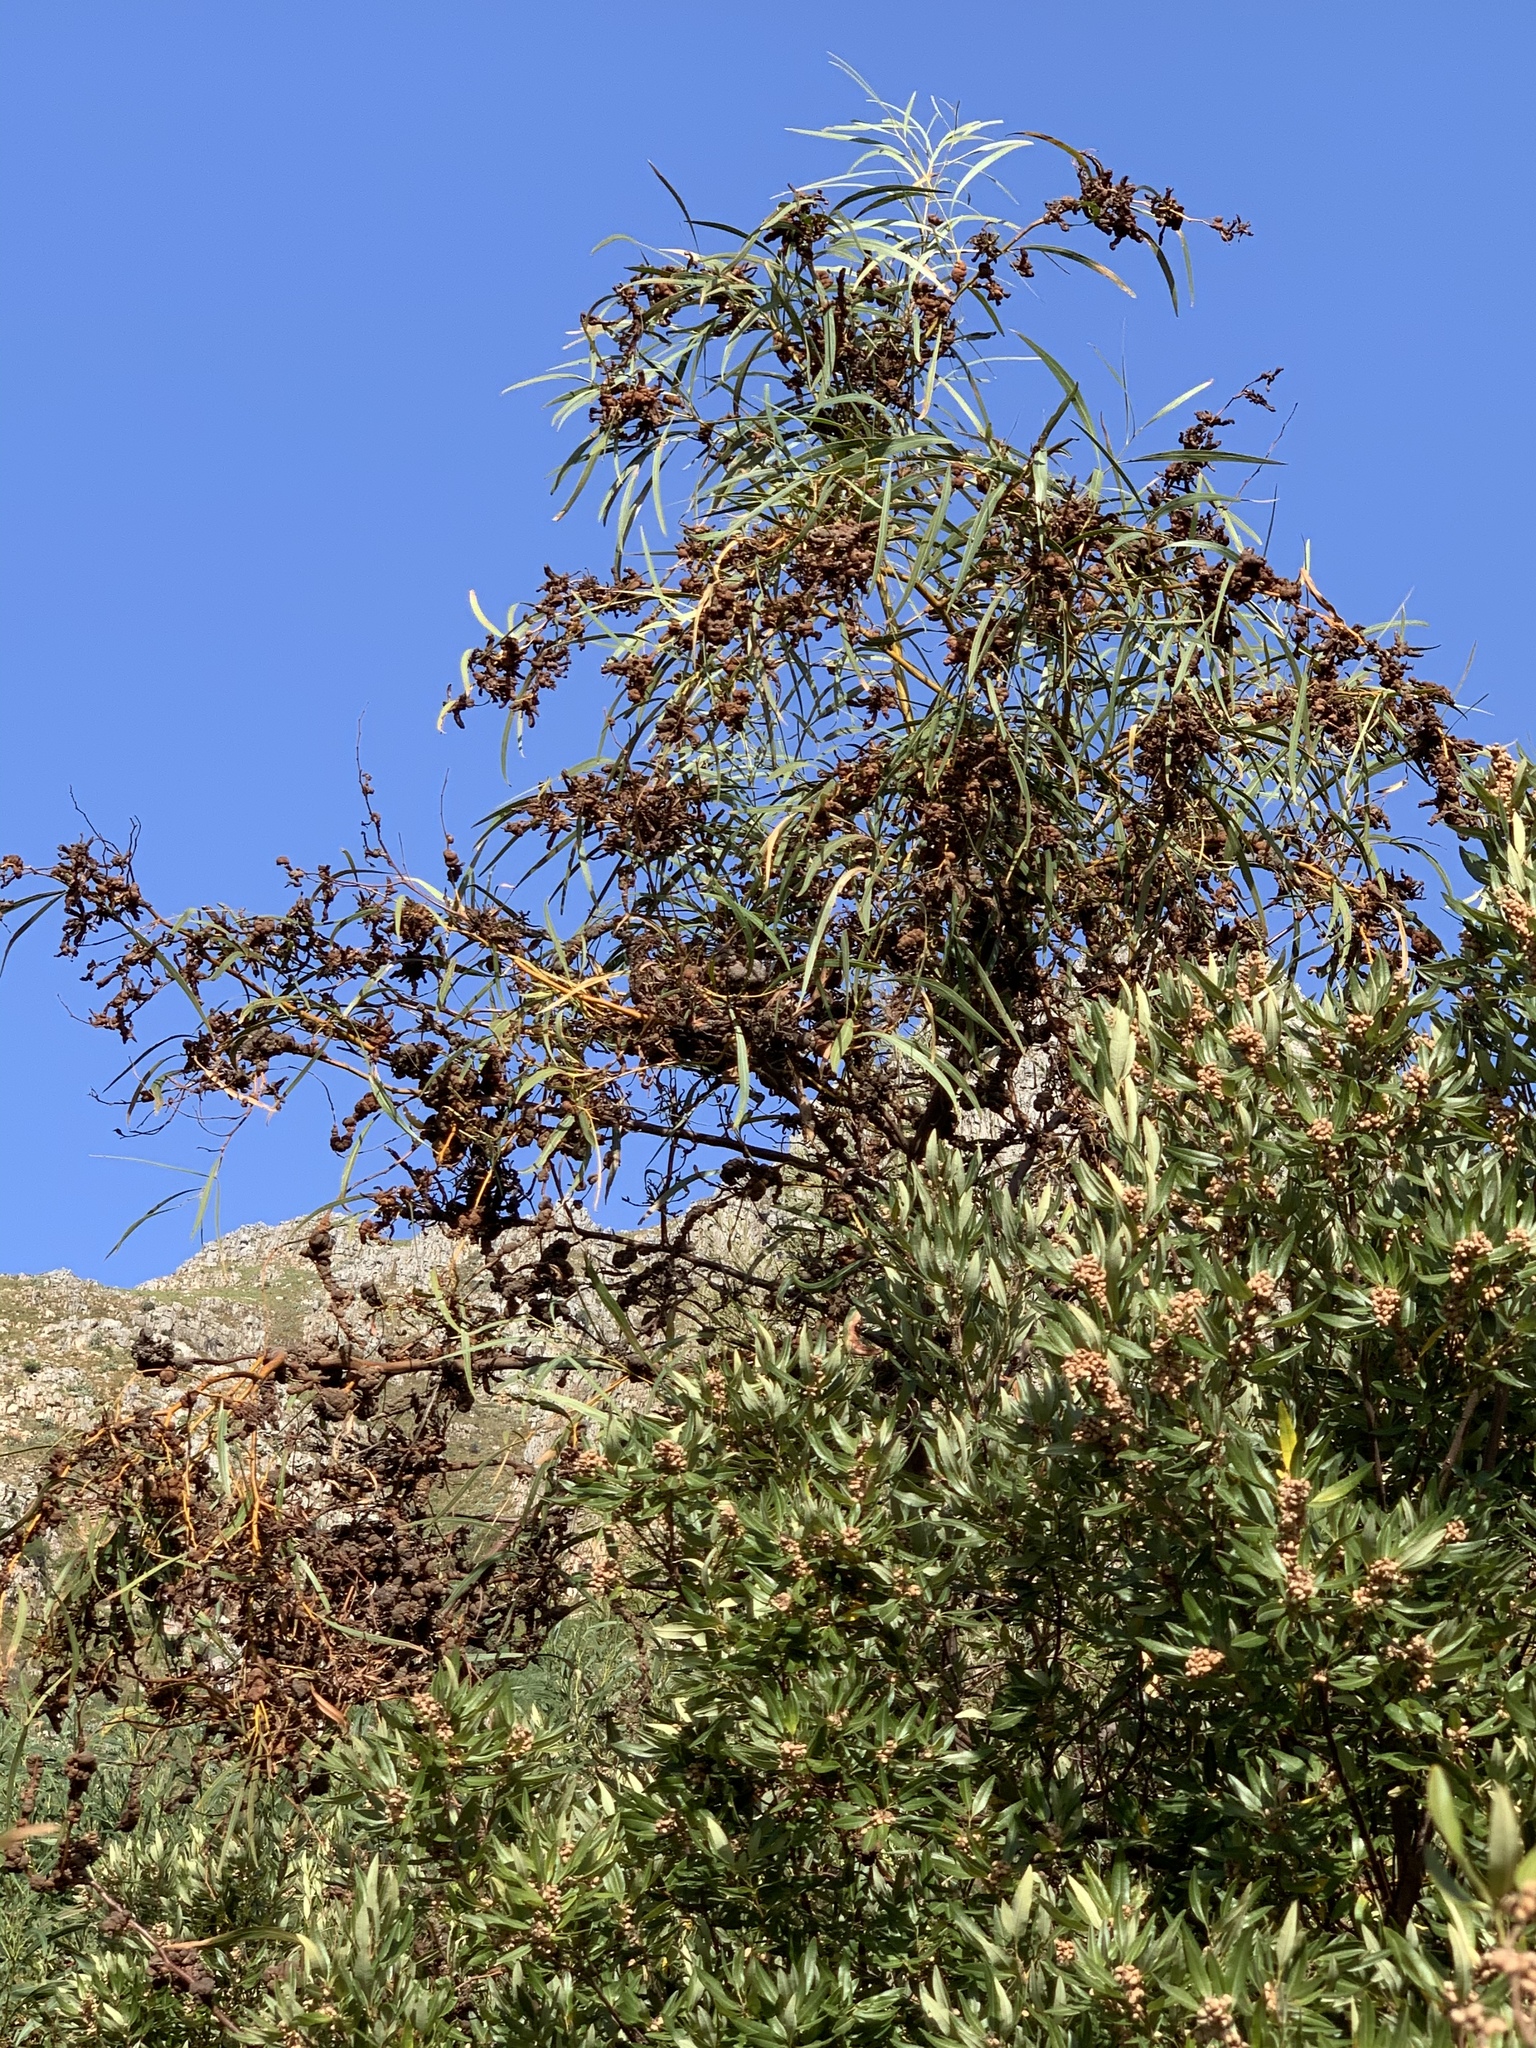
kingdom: Plantae
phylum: Tracheophyta
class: Magnoliopsida
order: Fabales
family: Fabaceae
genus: Acacia
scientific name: Acacia saligna
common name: Orange wattle
